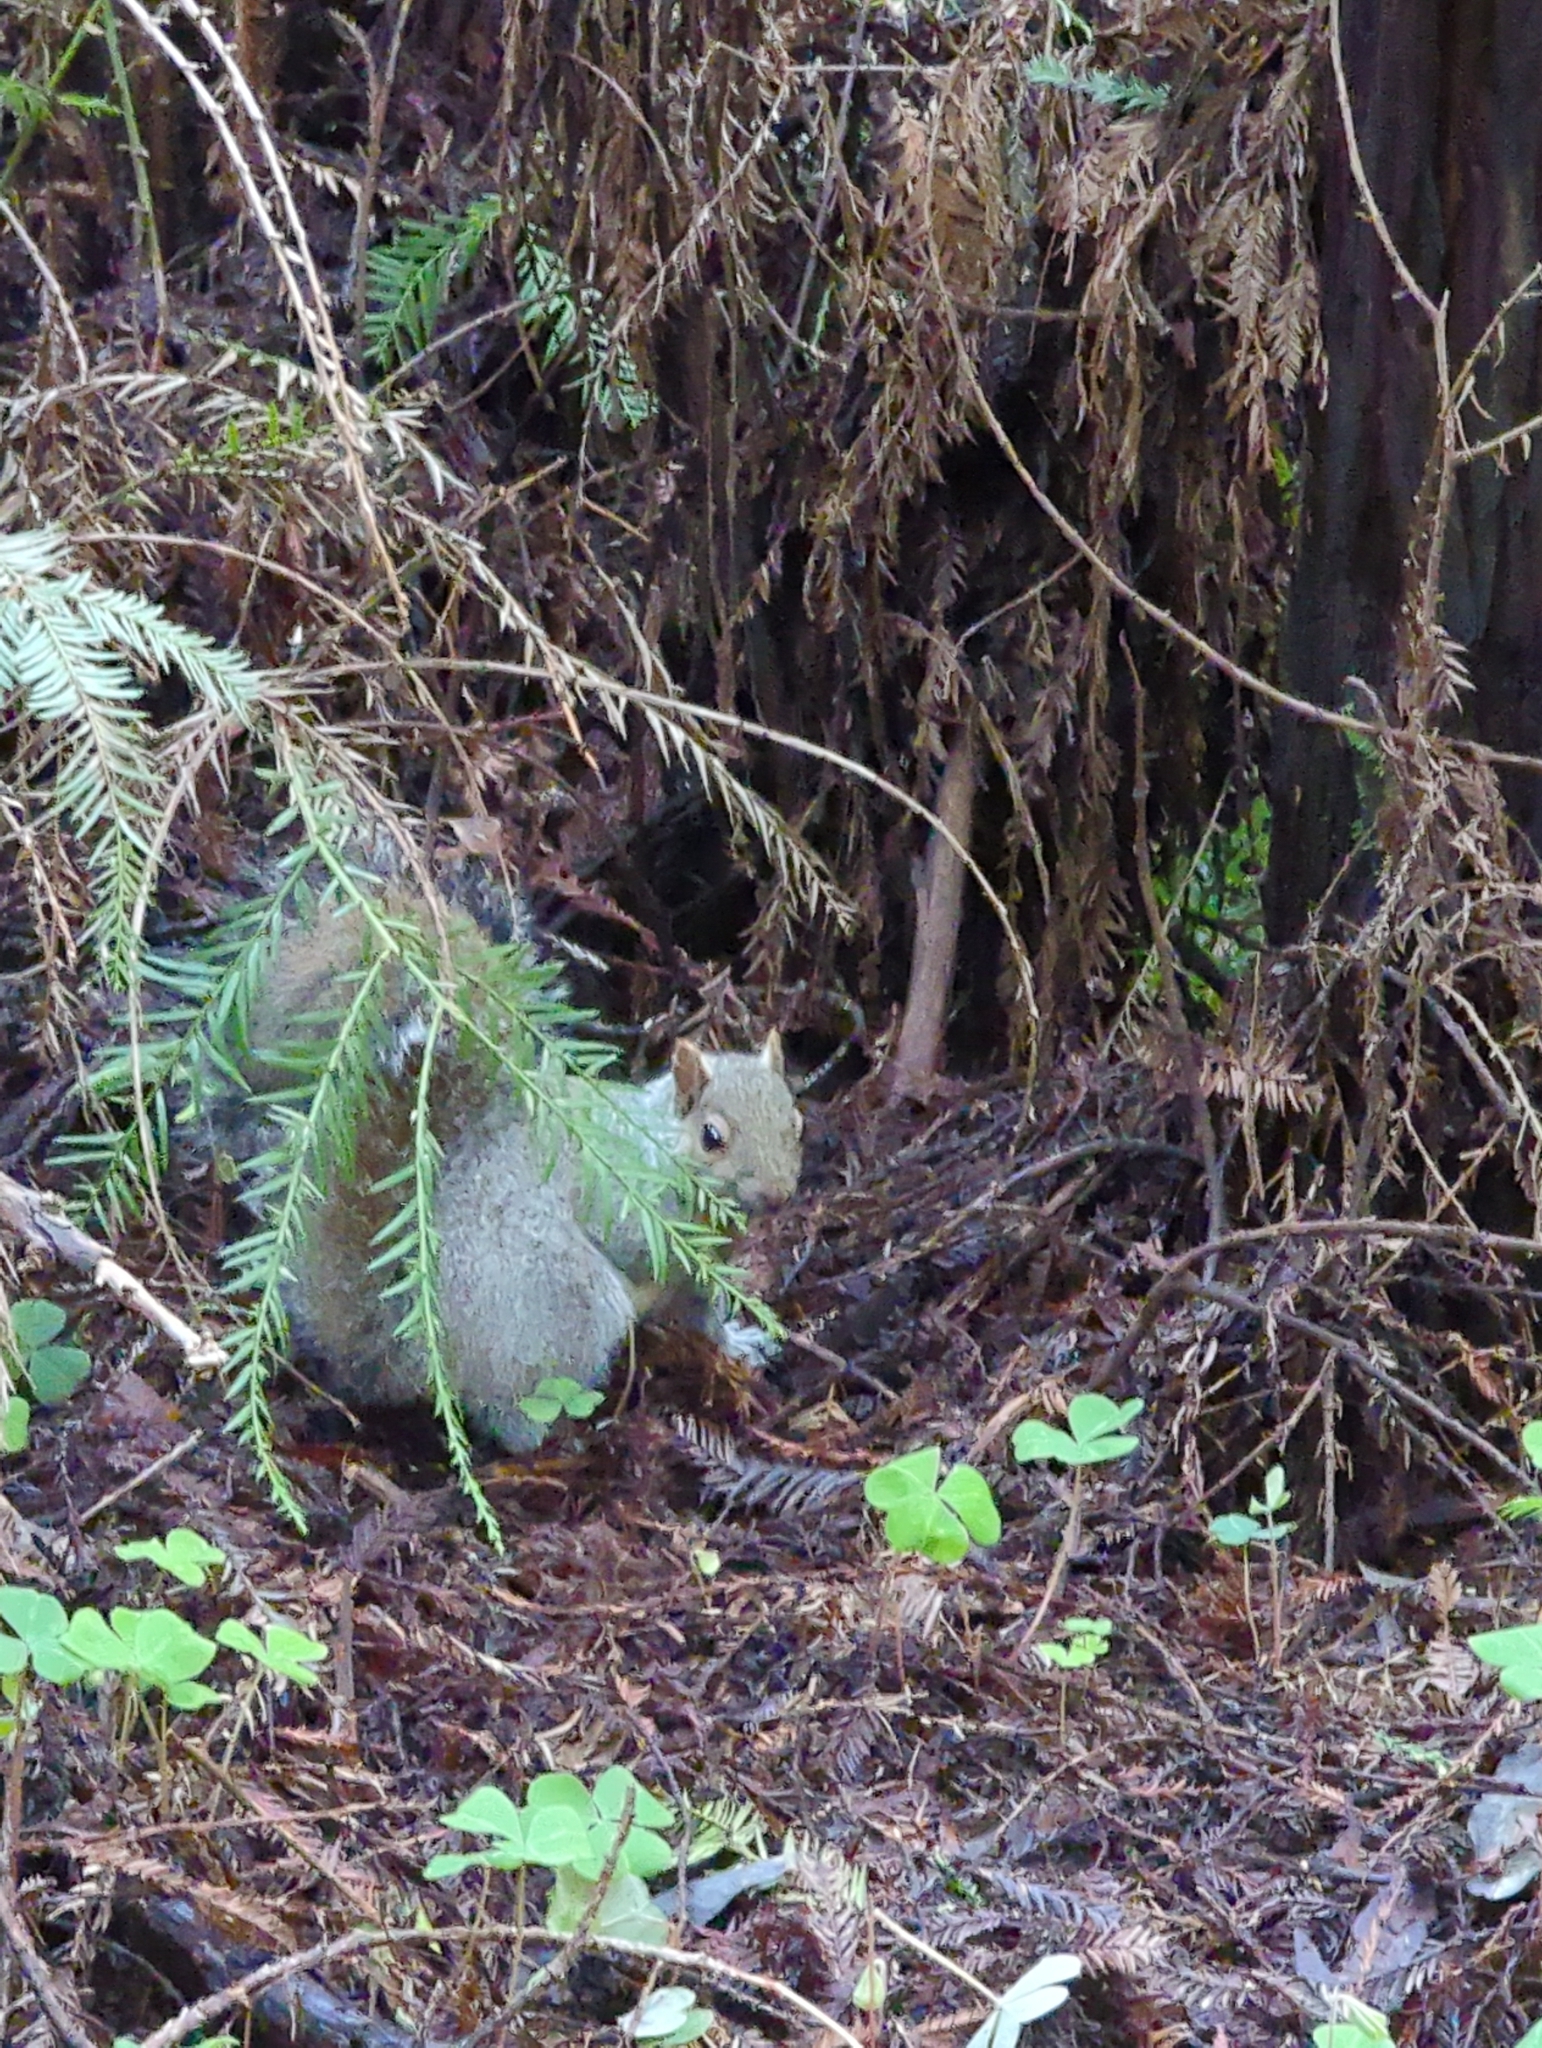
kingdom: Animalia
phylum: Chordata
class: Mammalia
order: Rodentia
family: Sciuridae
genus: Sciurus
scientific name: Sciurus carolinensis
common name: Eastern gray squirrel
